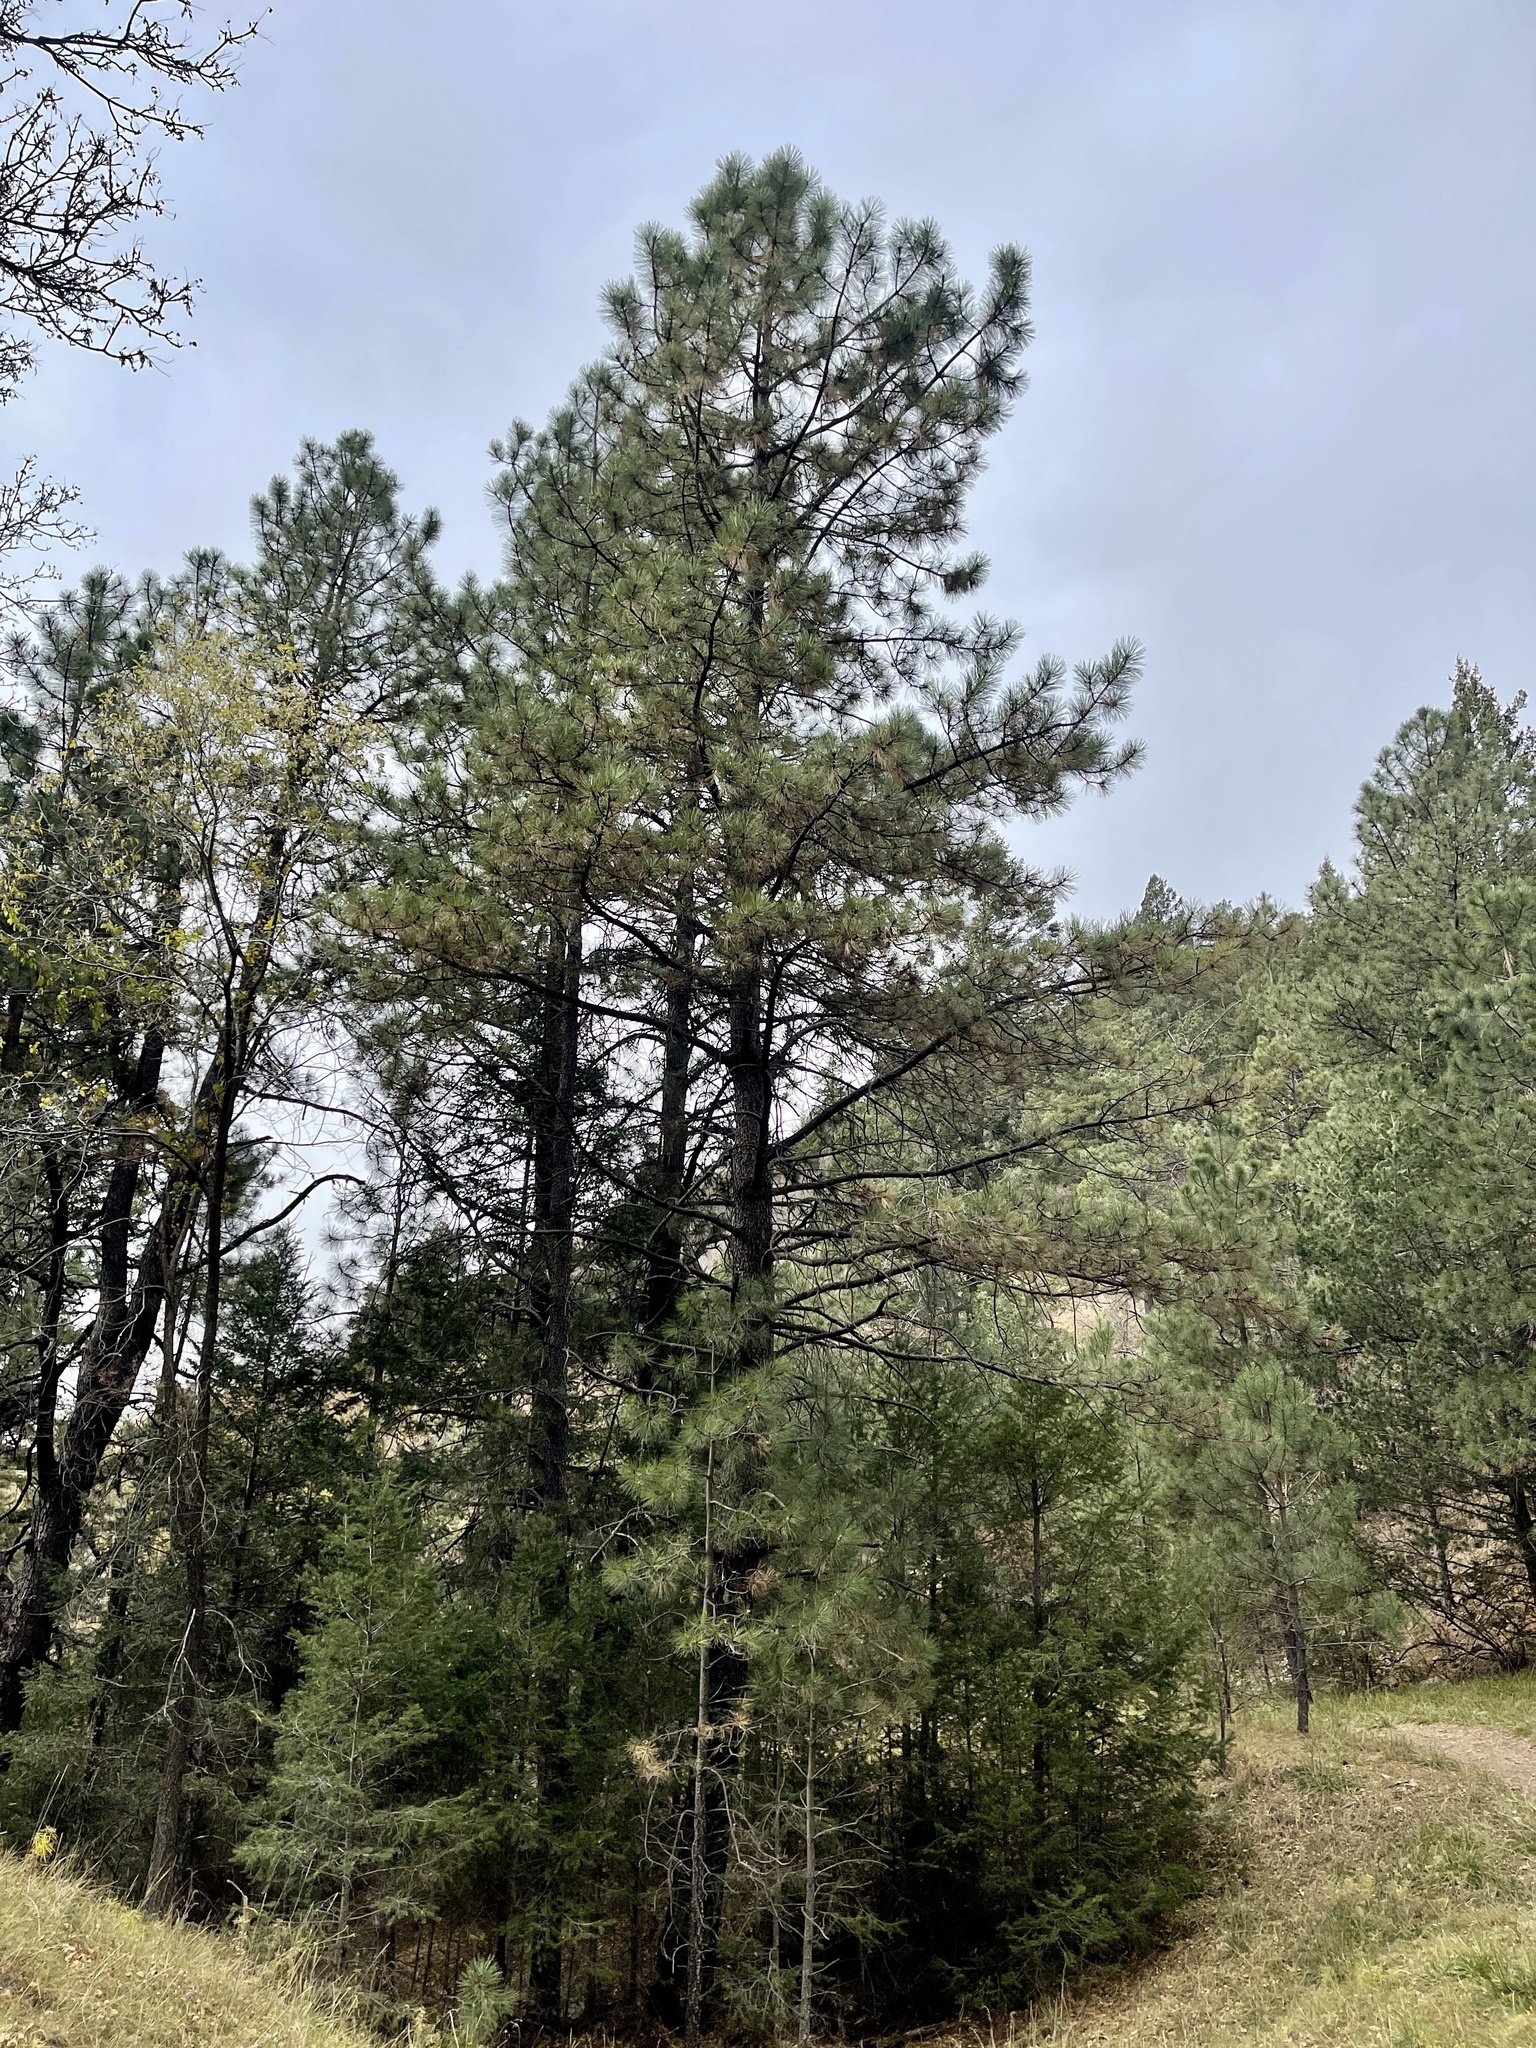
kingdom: Plantae
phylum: Tracheophyta
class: Pinopsida
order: Pinales
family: Pinaceae
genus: Pinus
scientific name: Pinus ponderosa
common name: Western yellow-pine
